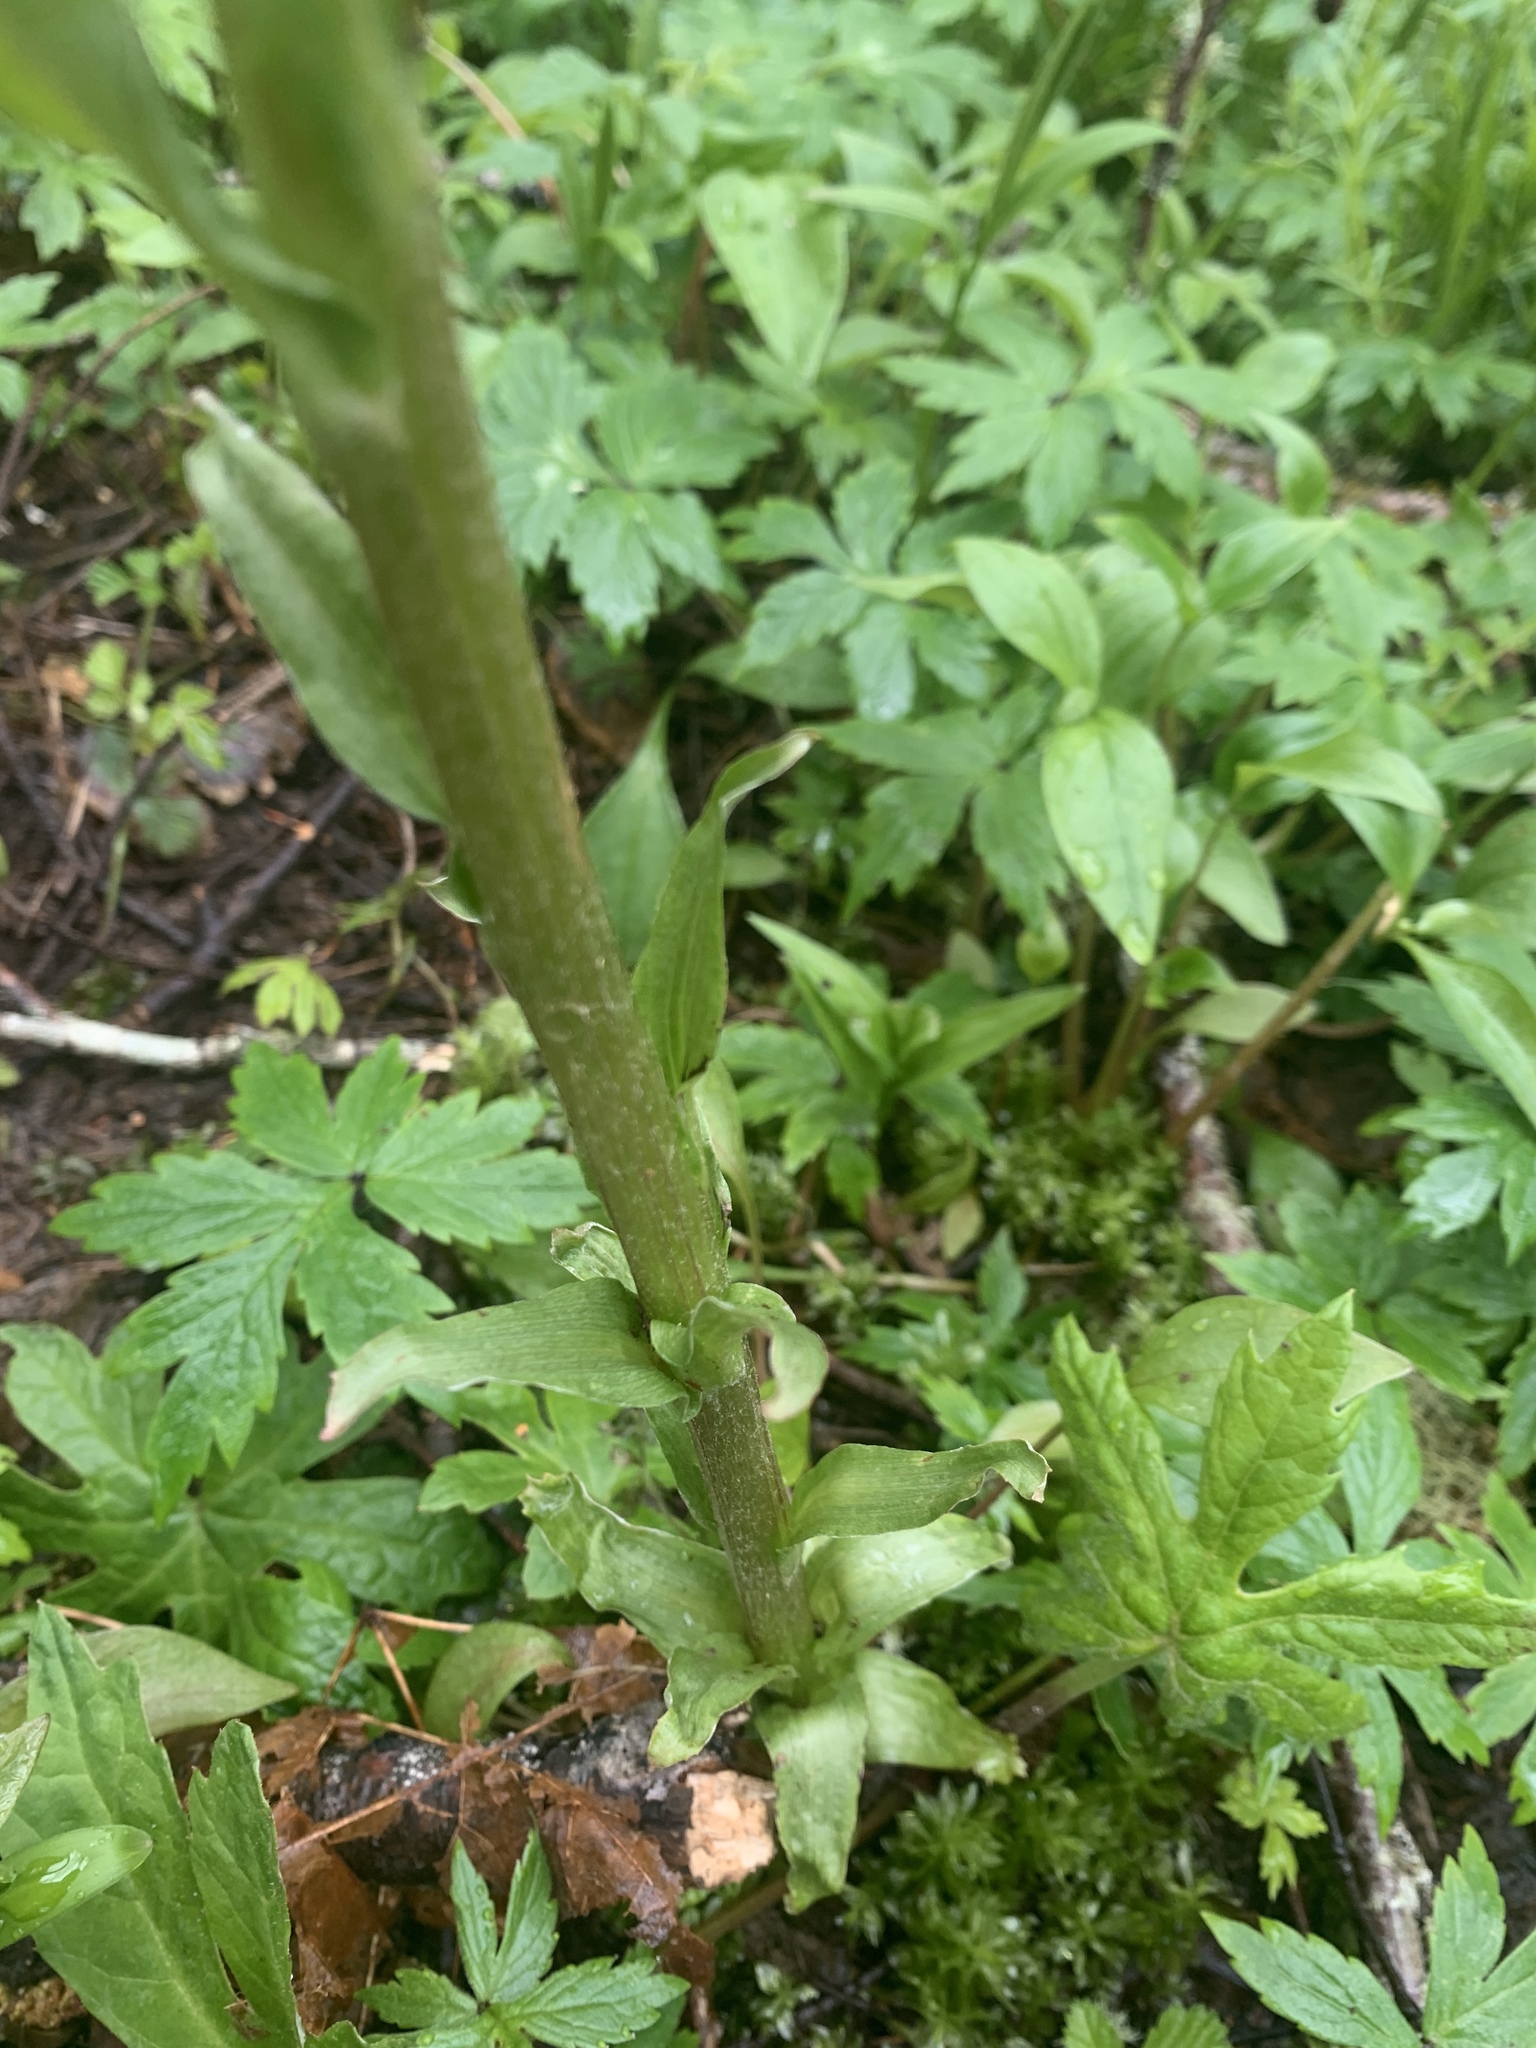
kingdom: Plantae
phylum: Tracheophyta
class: Magnoliopsida
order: Asterales
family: Asteraceae
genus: Petasites
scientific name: Petasites frigidus
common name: Arctic butterbur
